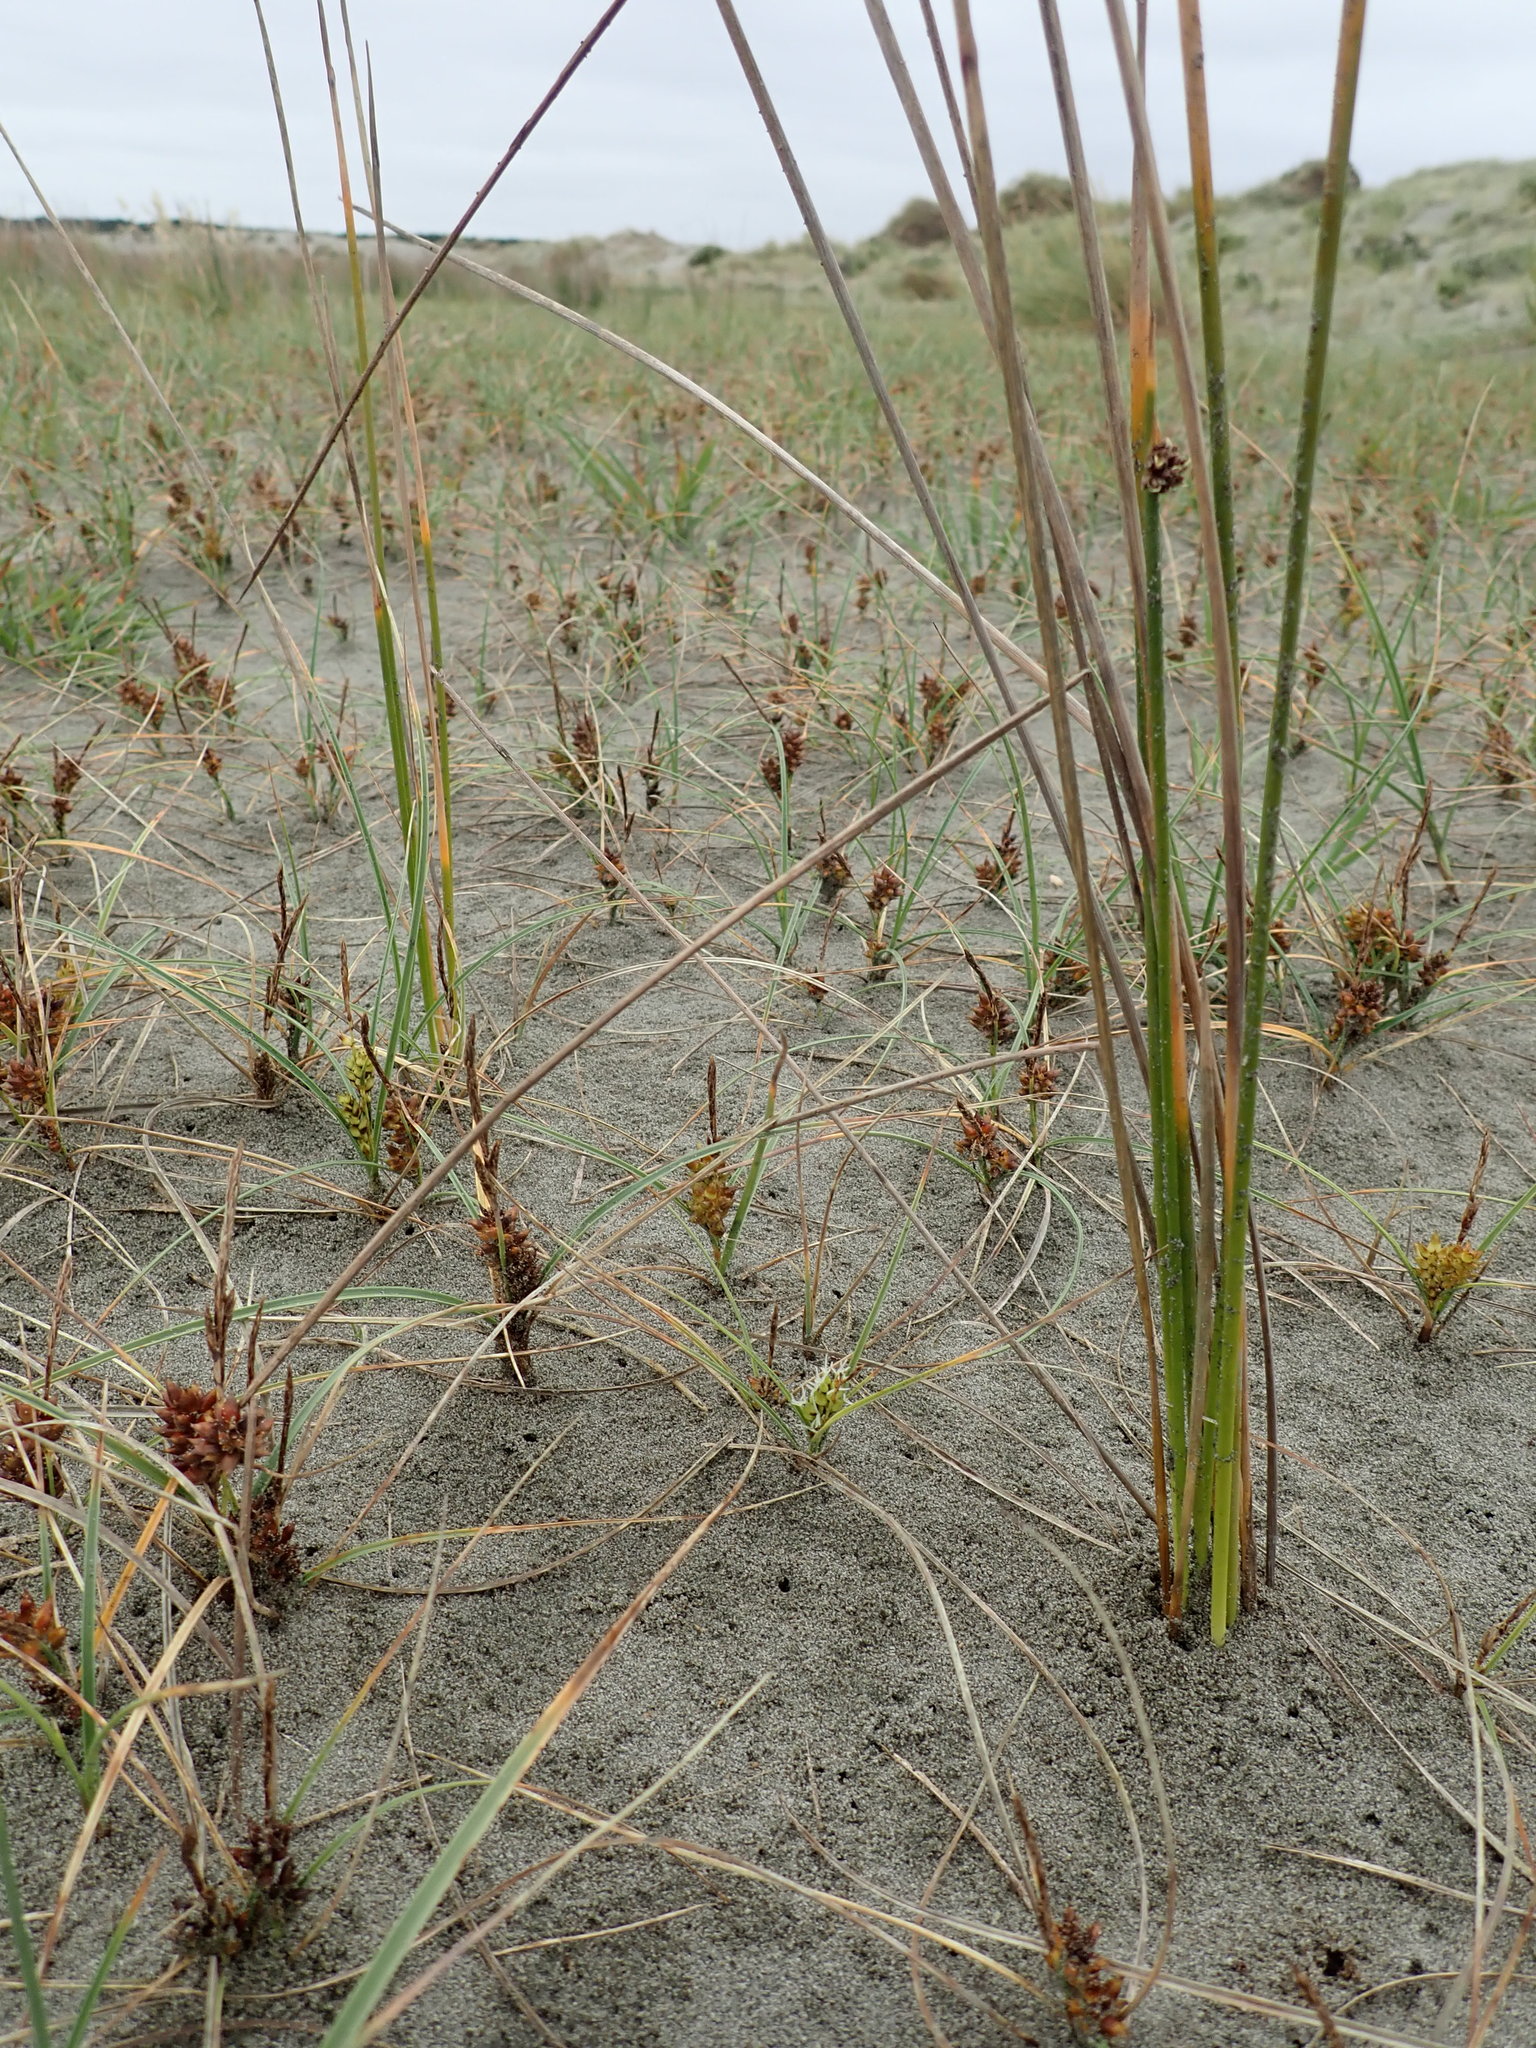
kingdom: Plantae
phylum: Tracheophyta
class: Liliopsida
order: Poales
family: Cyperaceae
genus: Carex
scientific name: Carex pumila
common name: Dwarf sedge
